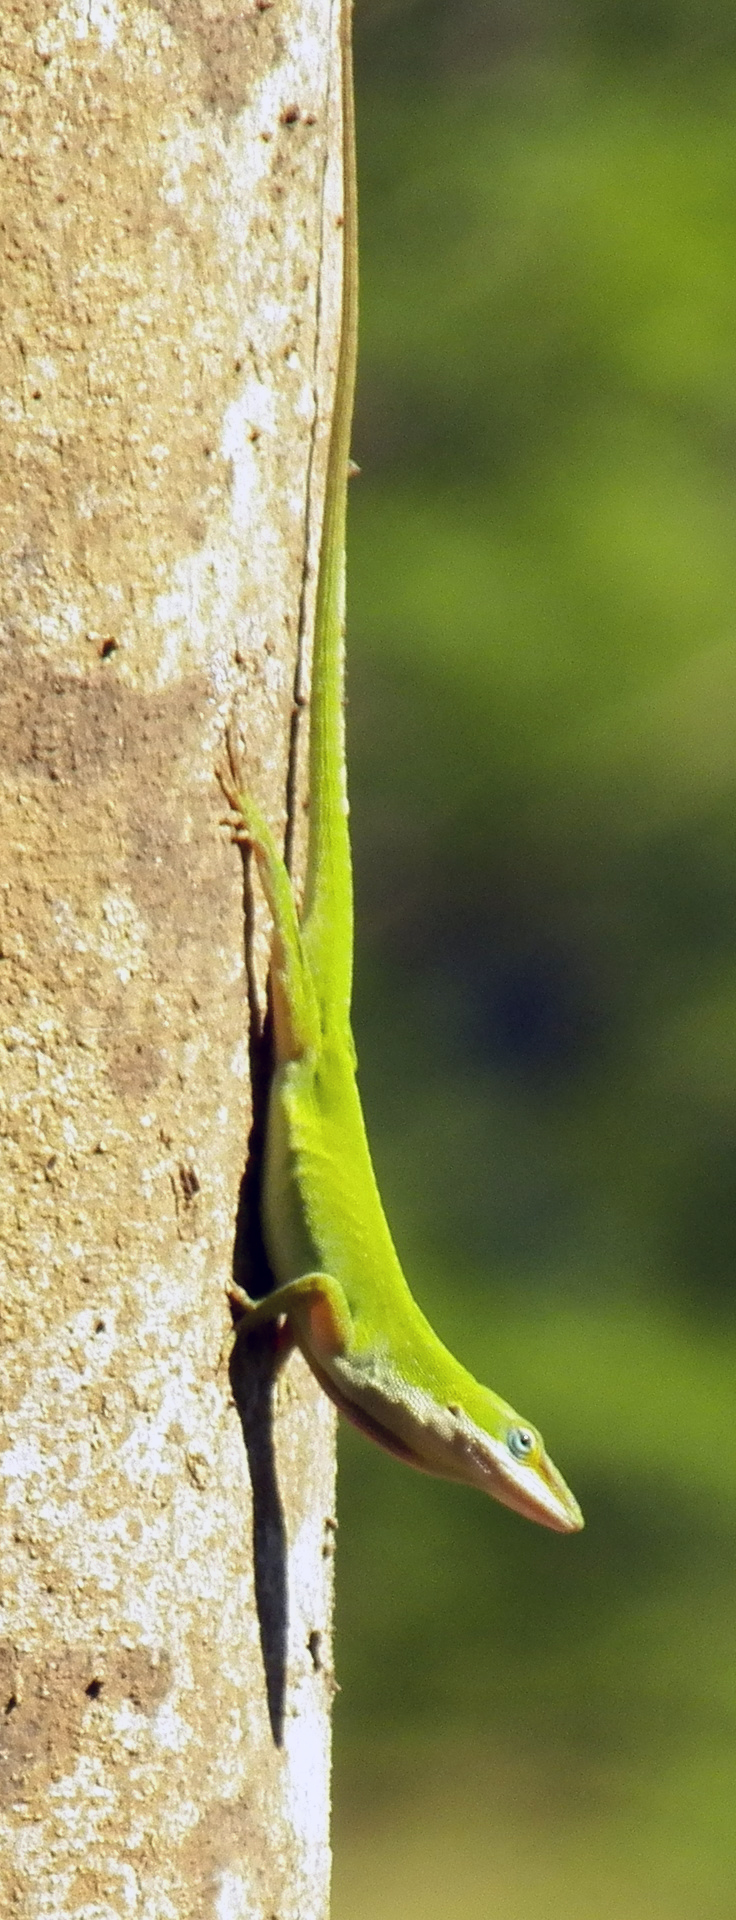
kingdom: Animalia
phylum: Chordata
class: Squamata
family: Dactyloidae
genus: Anolis
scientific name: Anolis carolinensis
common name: Green anole
